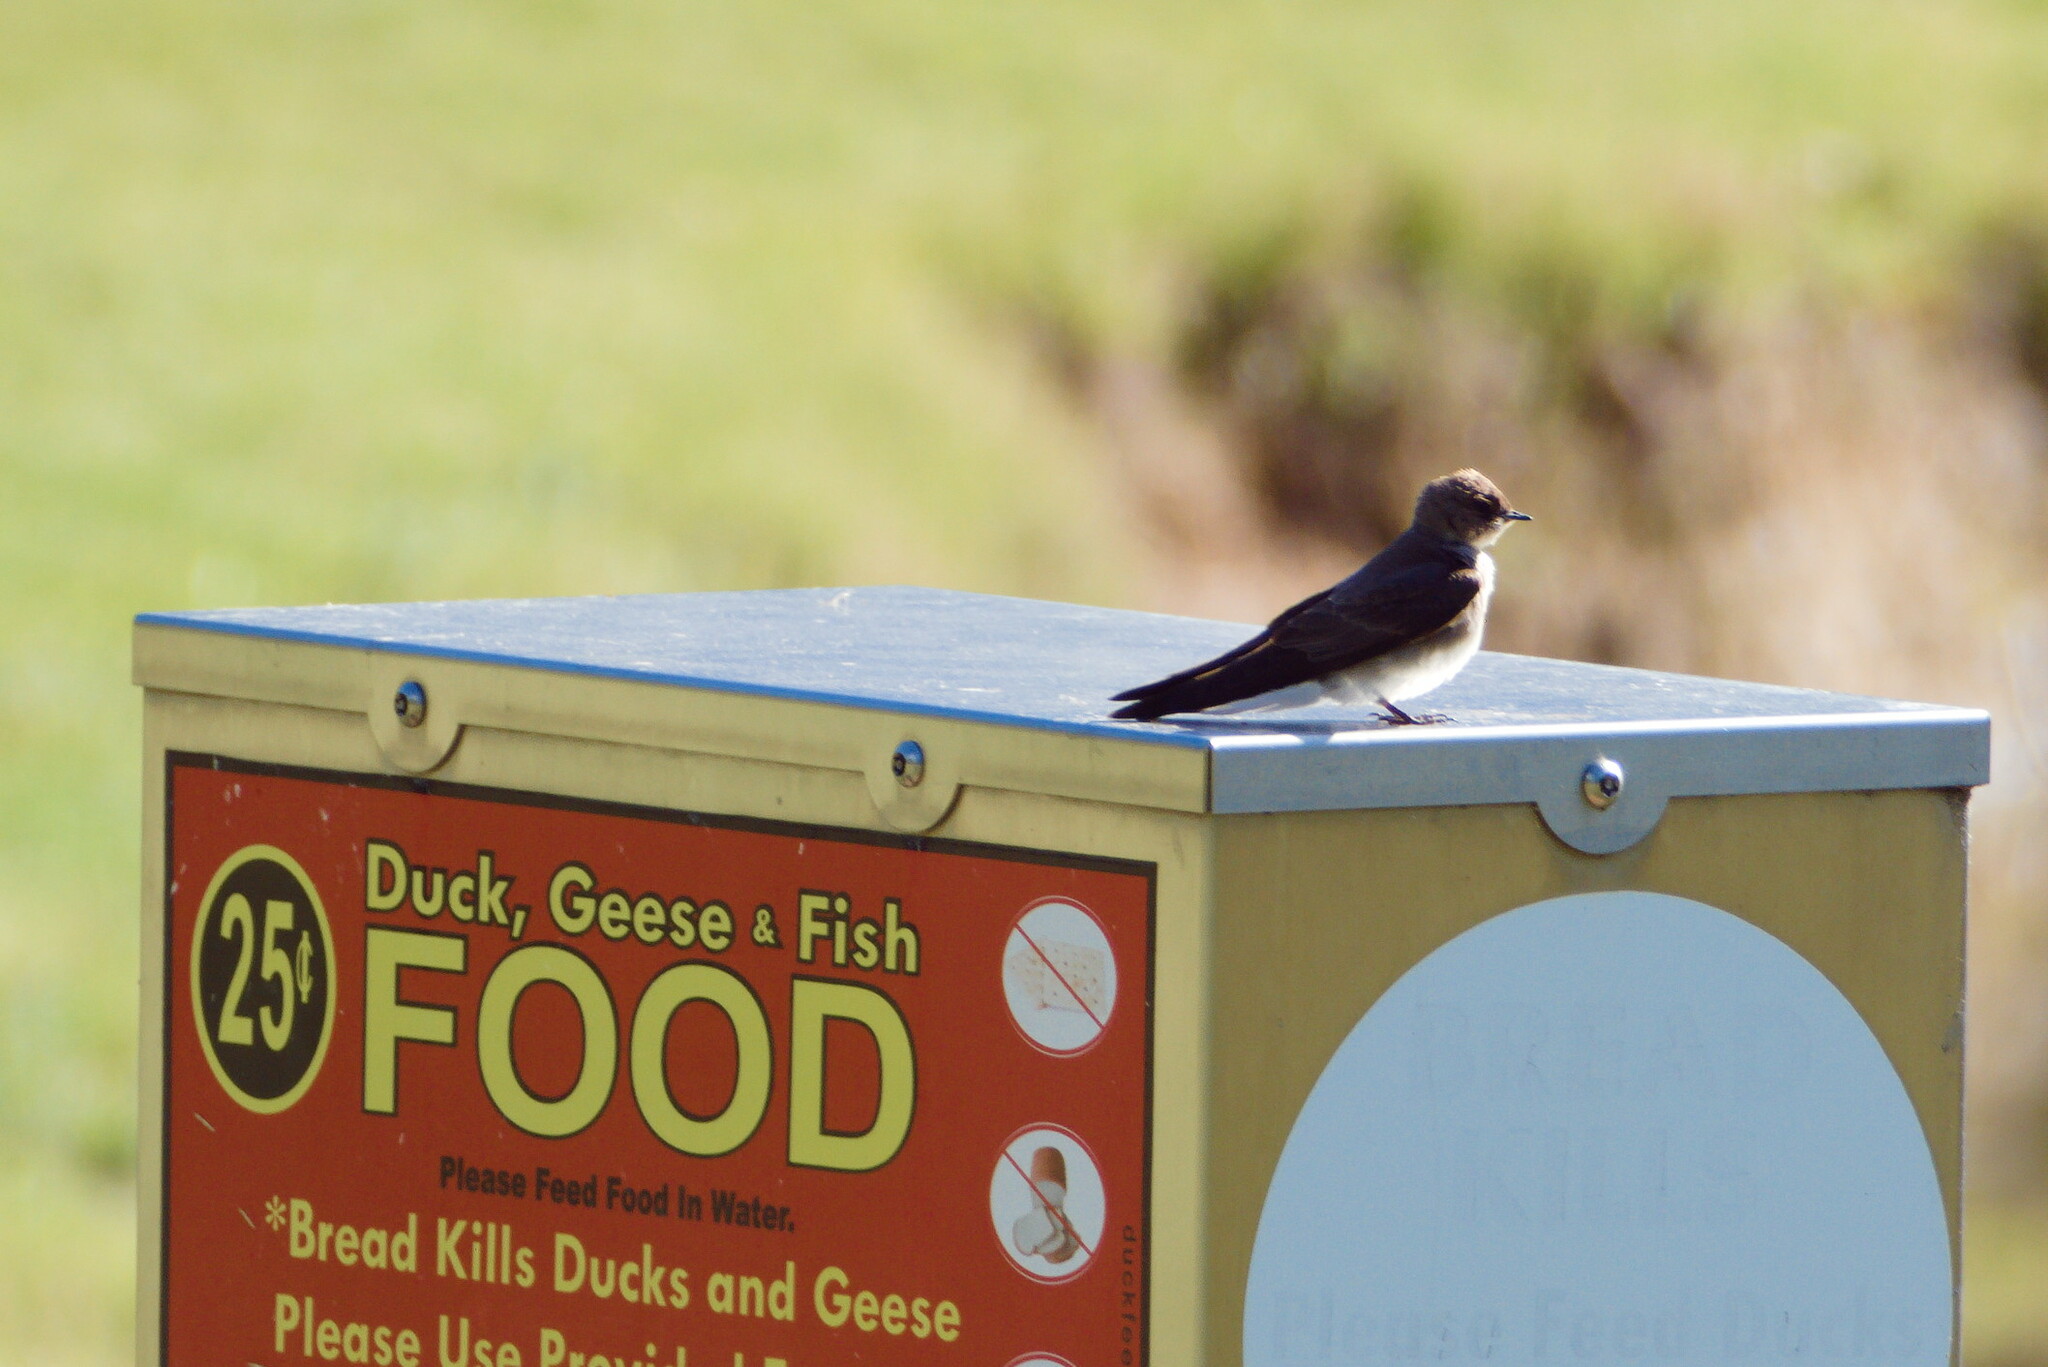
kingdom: Animalia
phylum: Chordata
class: Aves
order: Passeriformes
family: Hirundinidae
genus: Stelgidopteryx
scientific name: Stelgidopteryx serripennis
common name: Northern rough-winged swallow
